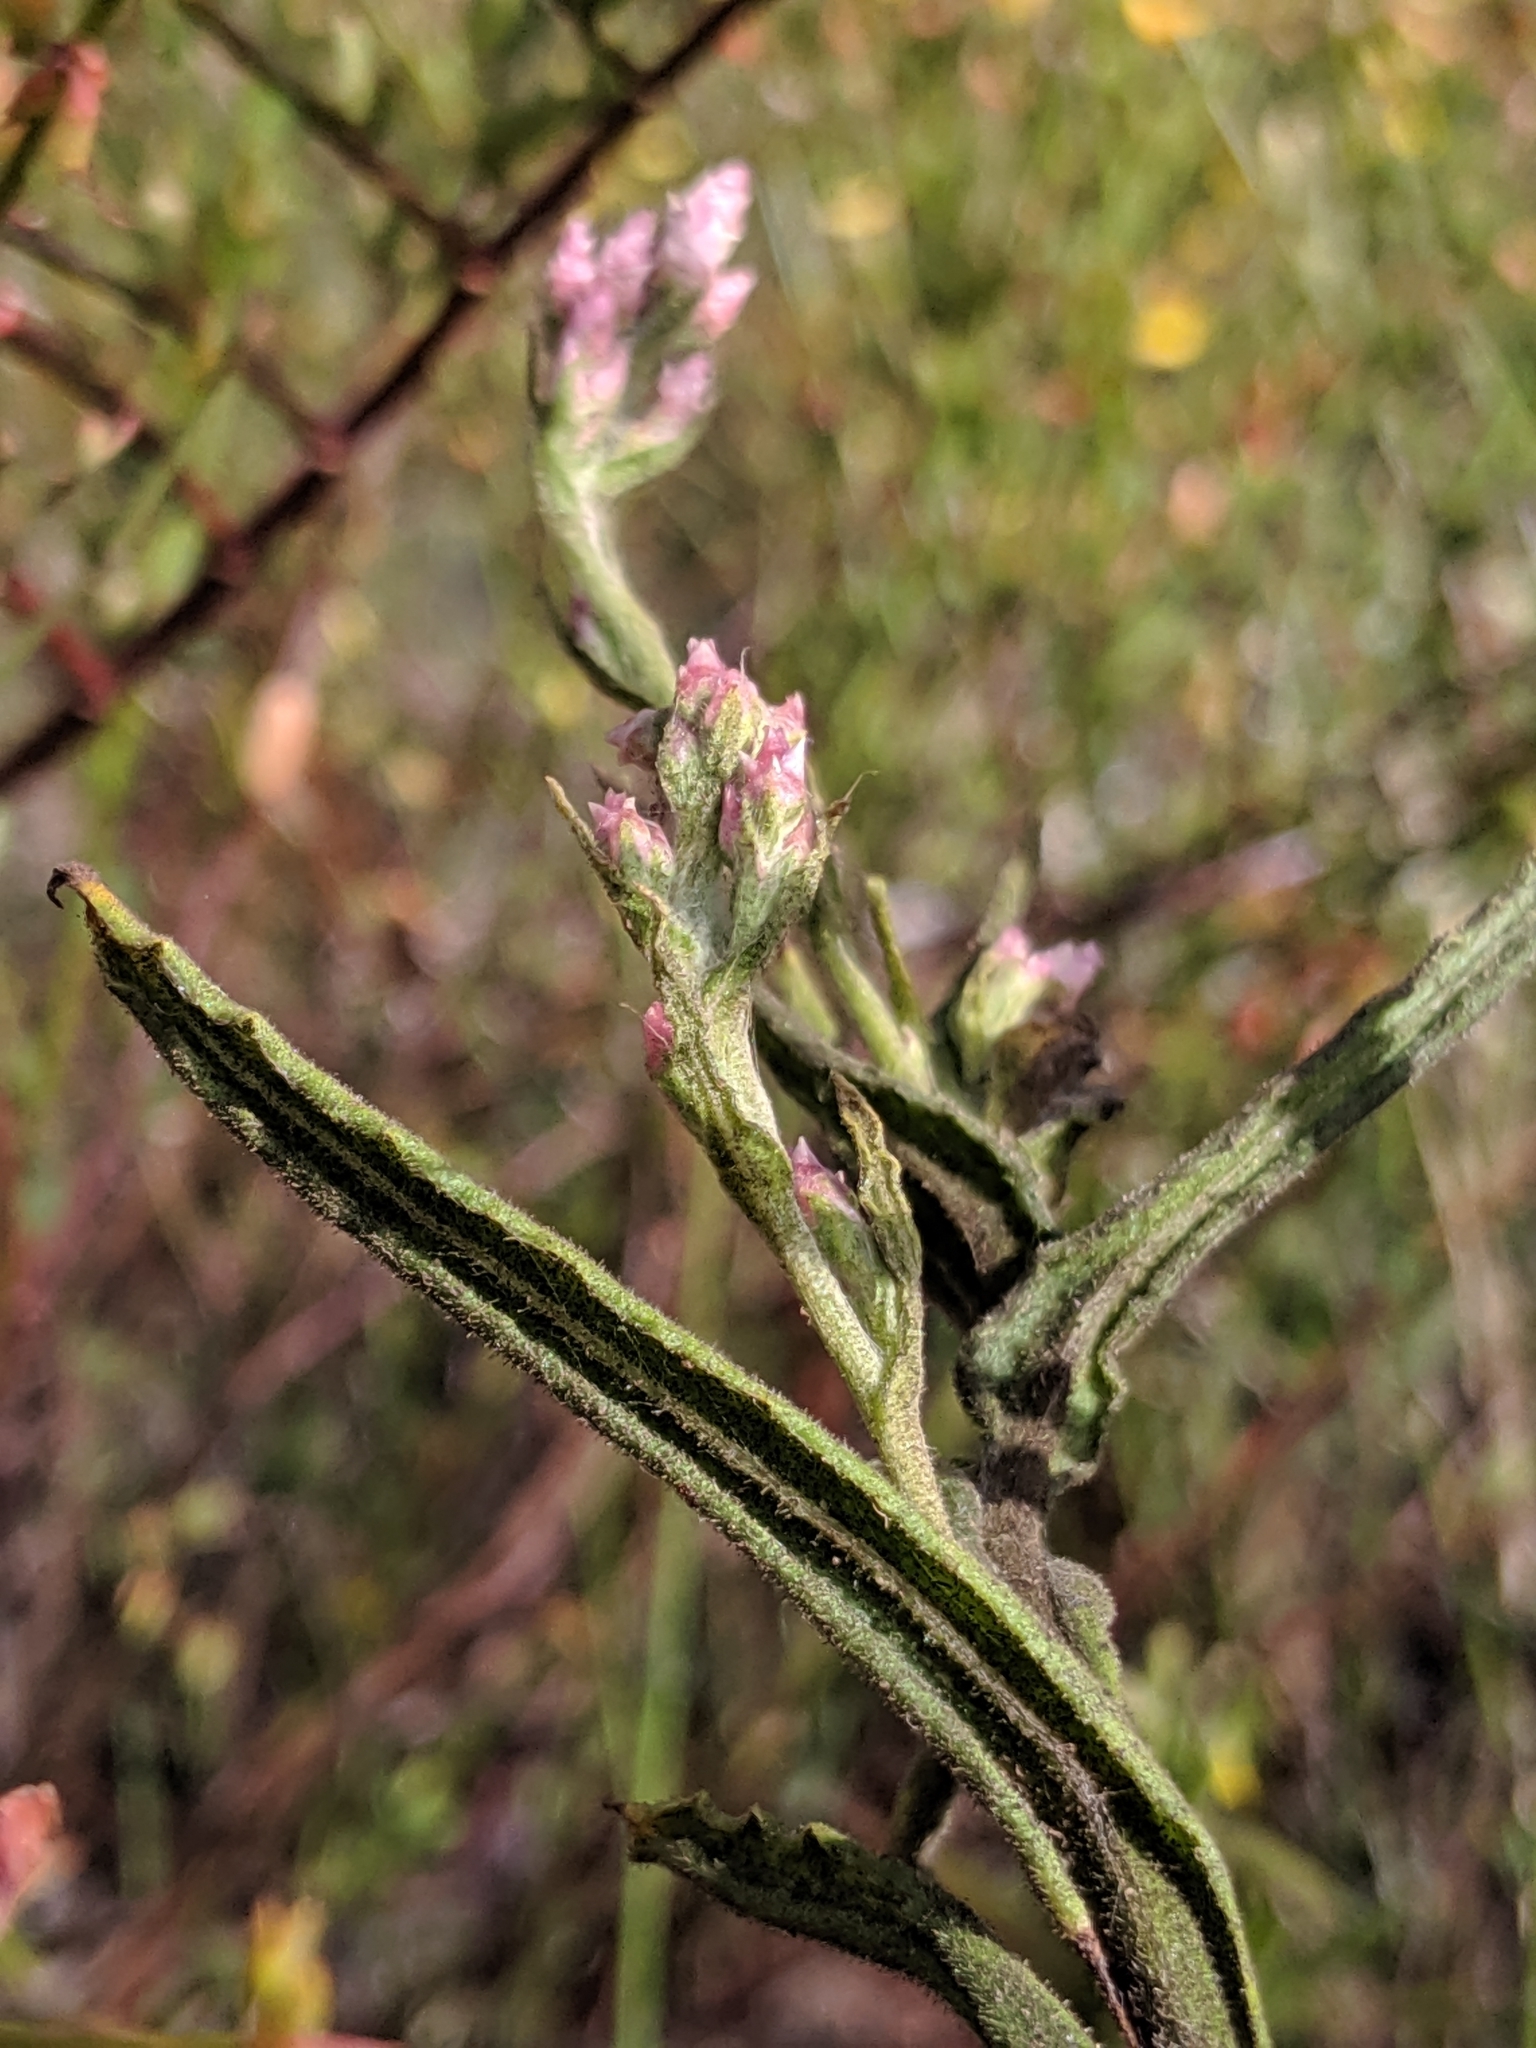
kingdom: Plantae
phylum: Tracheophyta
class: Magnoliopsida
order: Asterales
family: Asteraceae
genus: Pseudognaphalium
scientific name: Pseudognaphalium ramosissimum
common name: Pink rabbit-tobacco
